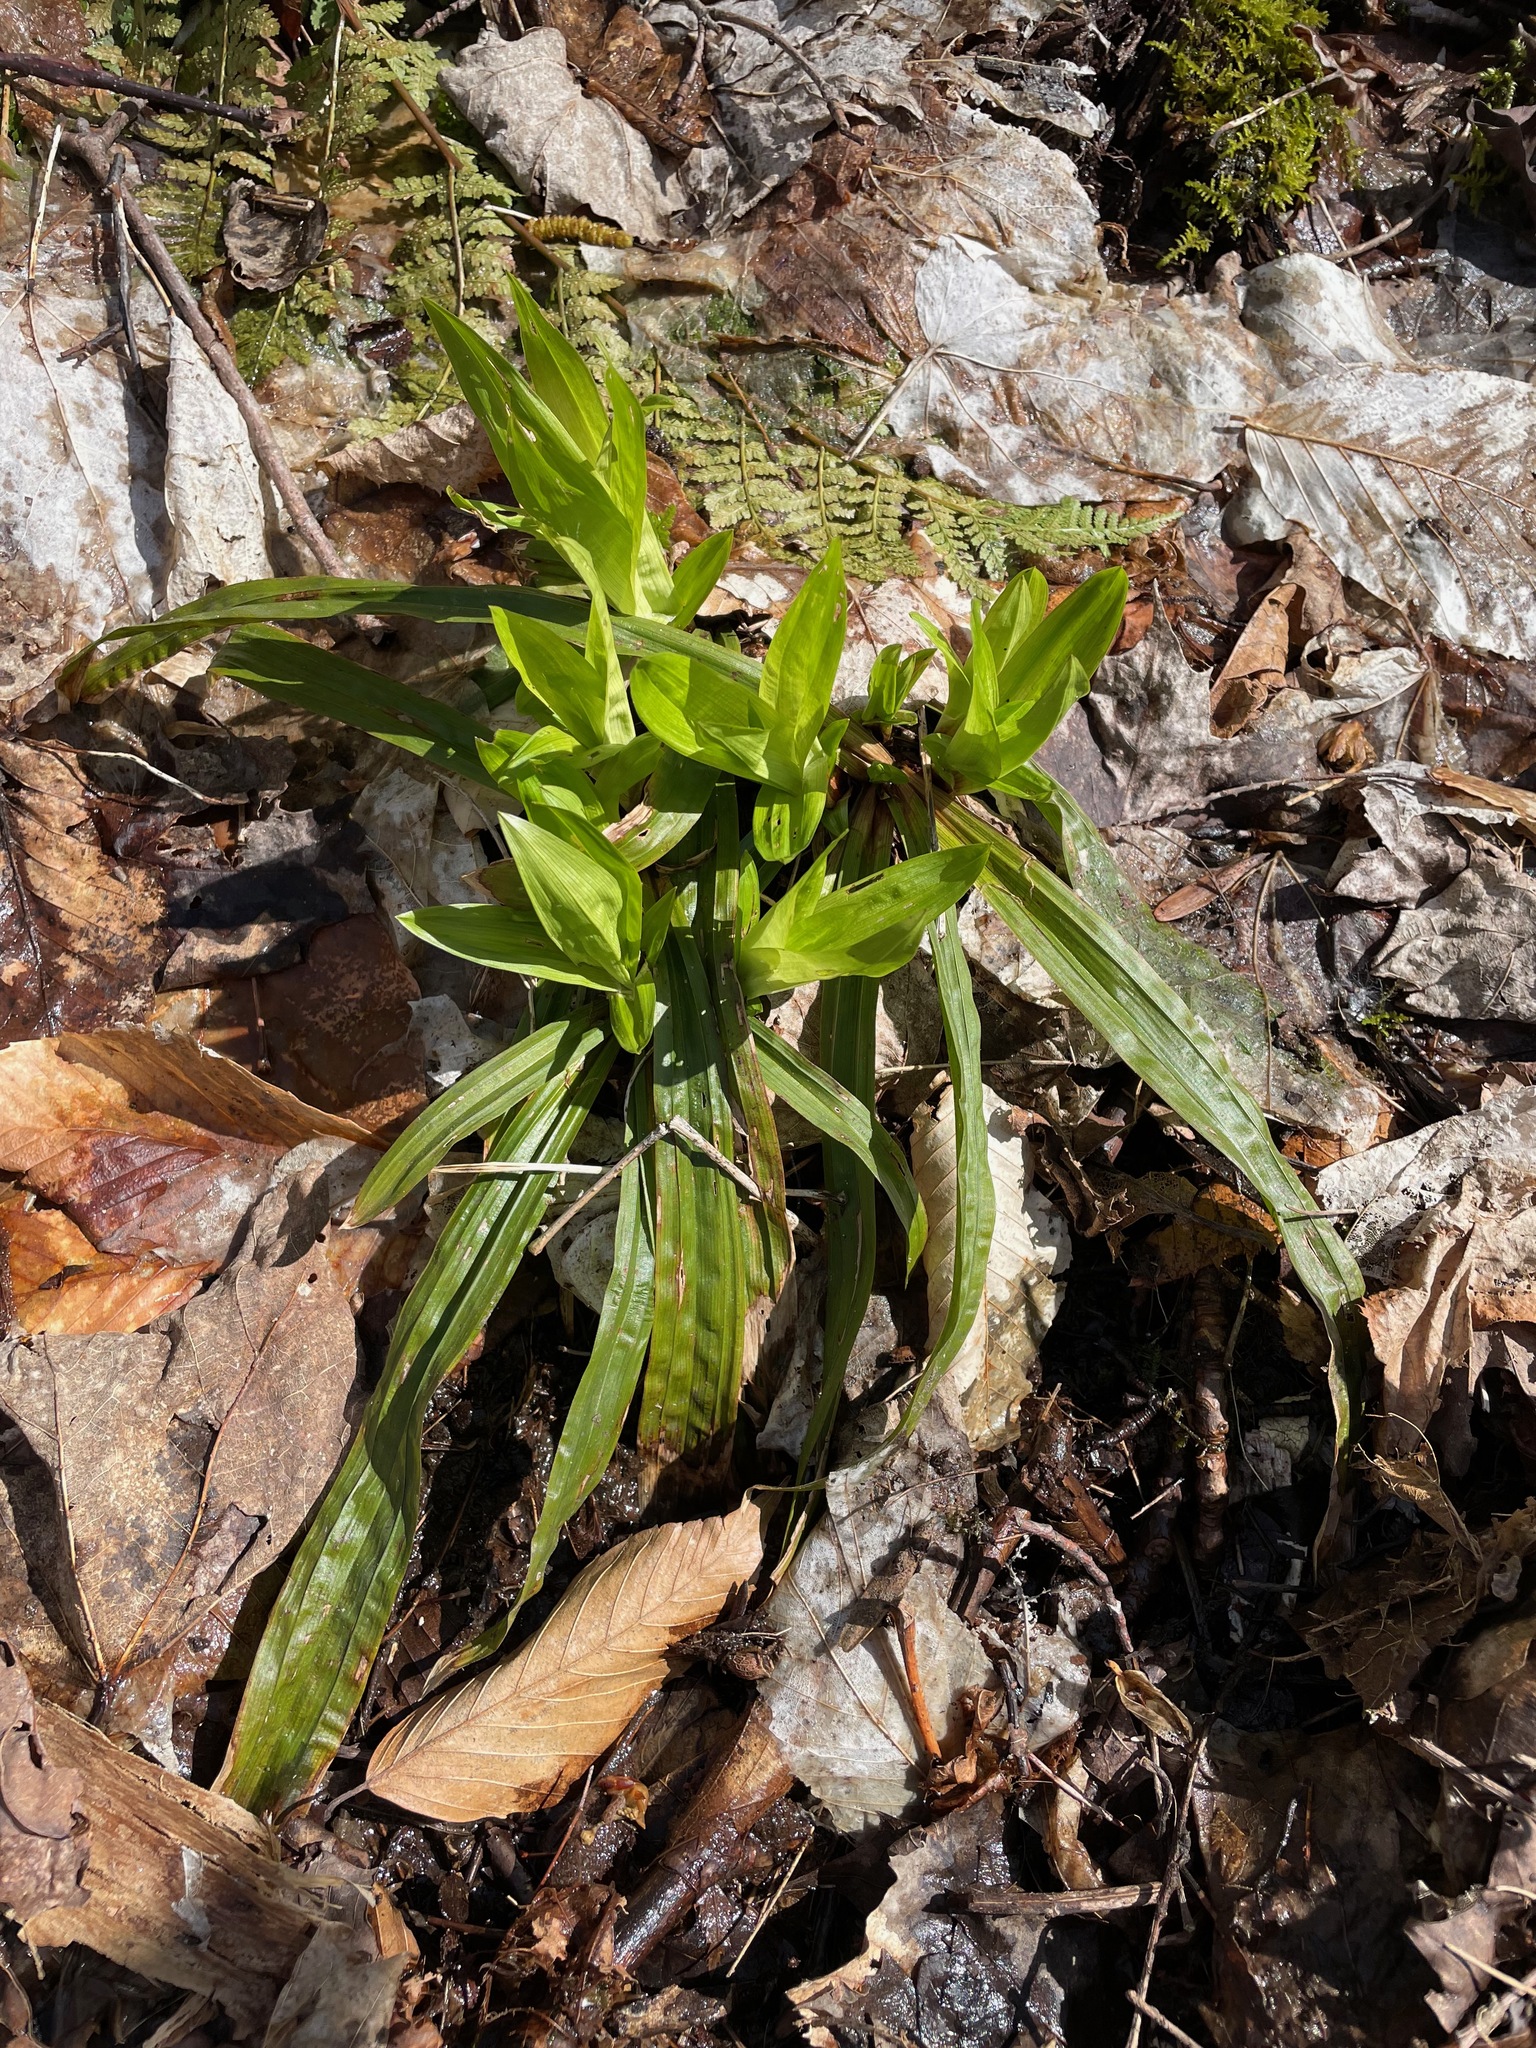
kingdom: Plantae
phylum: Tracheophyta
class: Liliopsida
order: Poales
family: Cyperaceae
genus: Carex
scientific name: Carex plantaginea
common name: Plantain-leaved sedge
